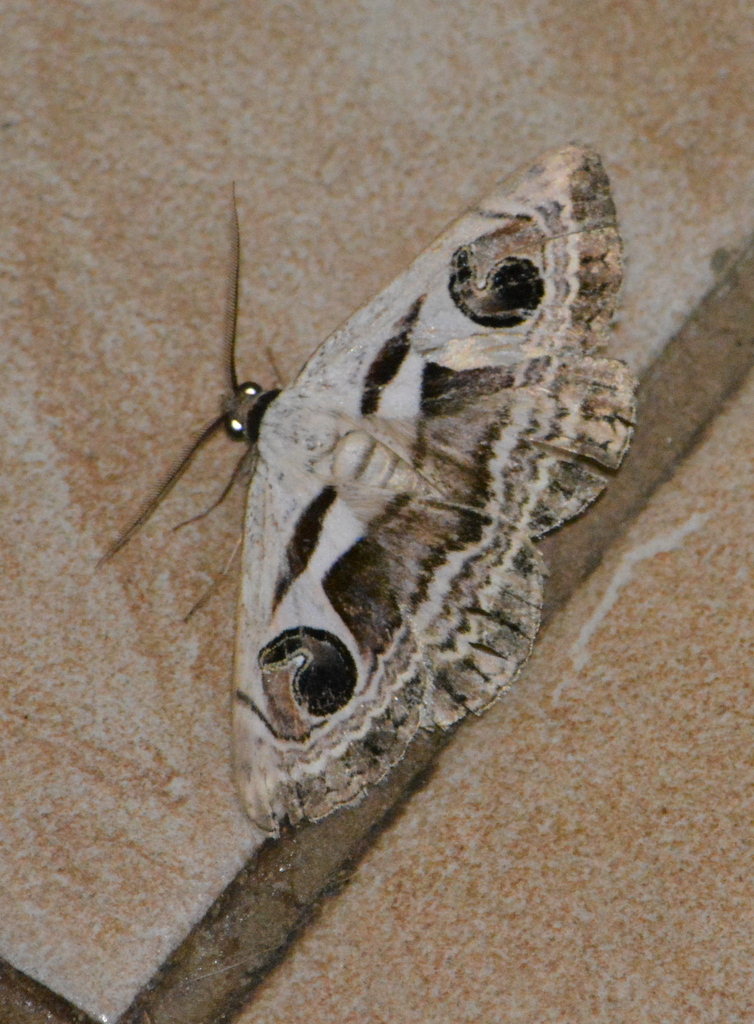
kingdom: Animalia
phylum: Arthropoda
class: Insecta
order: Lepidoptera
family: Erebidae
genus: Cometaster
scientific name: Cometaster pyrula
